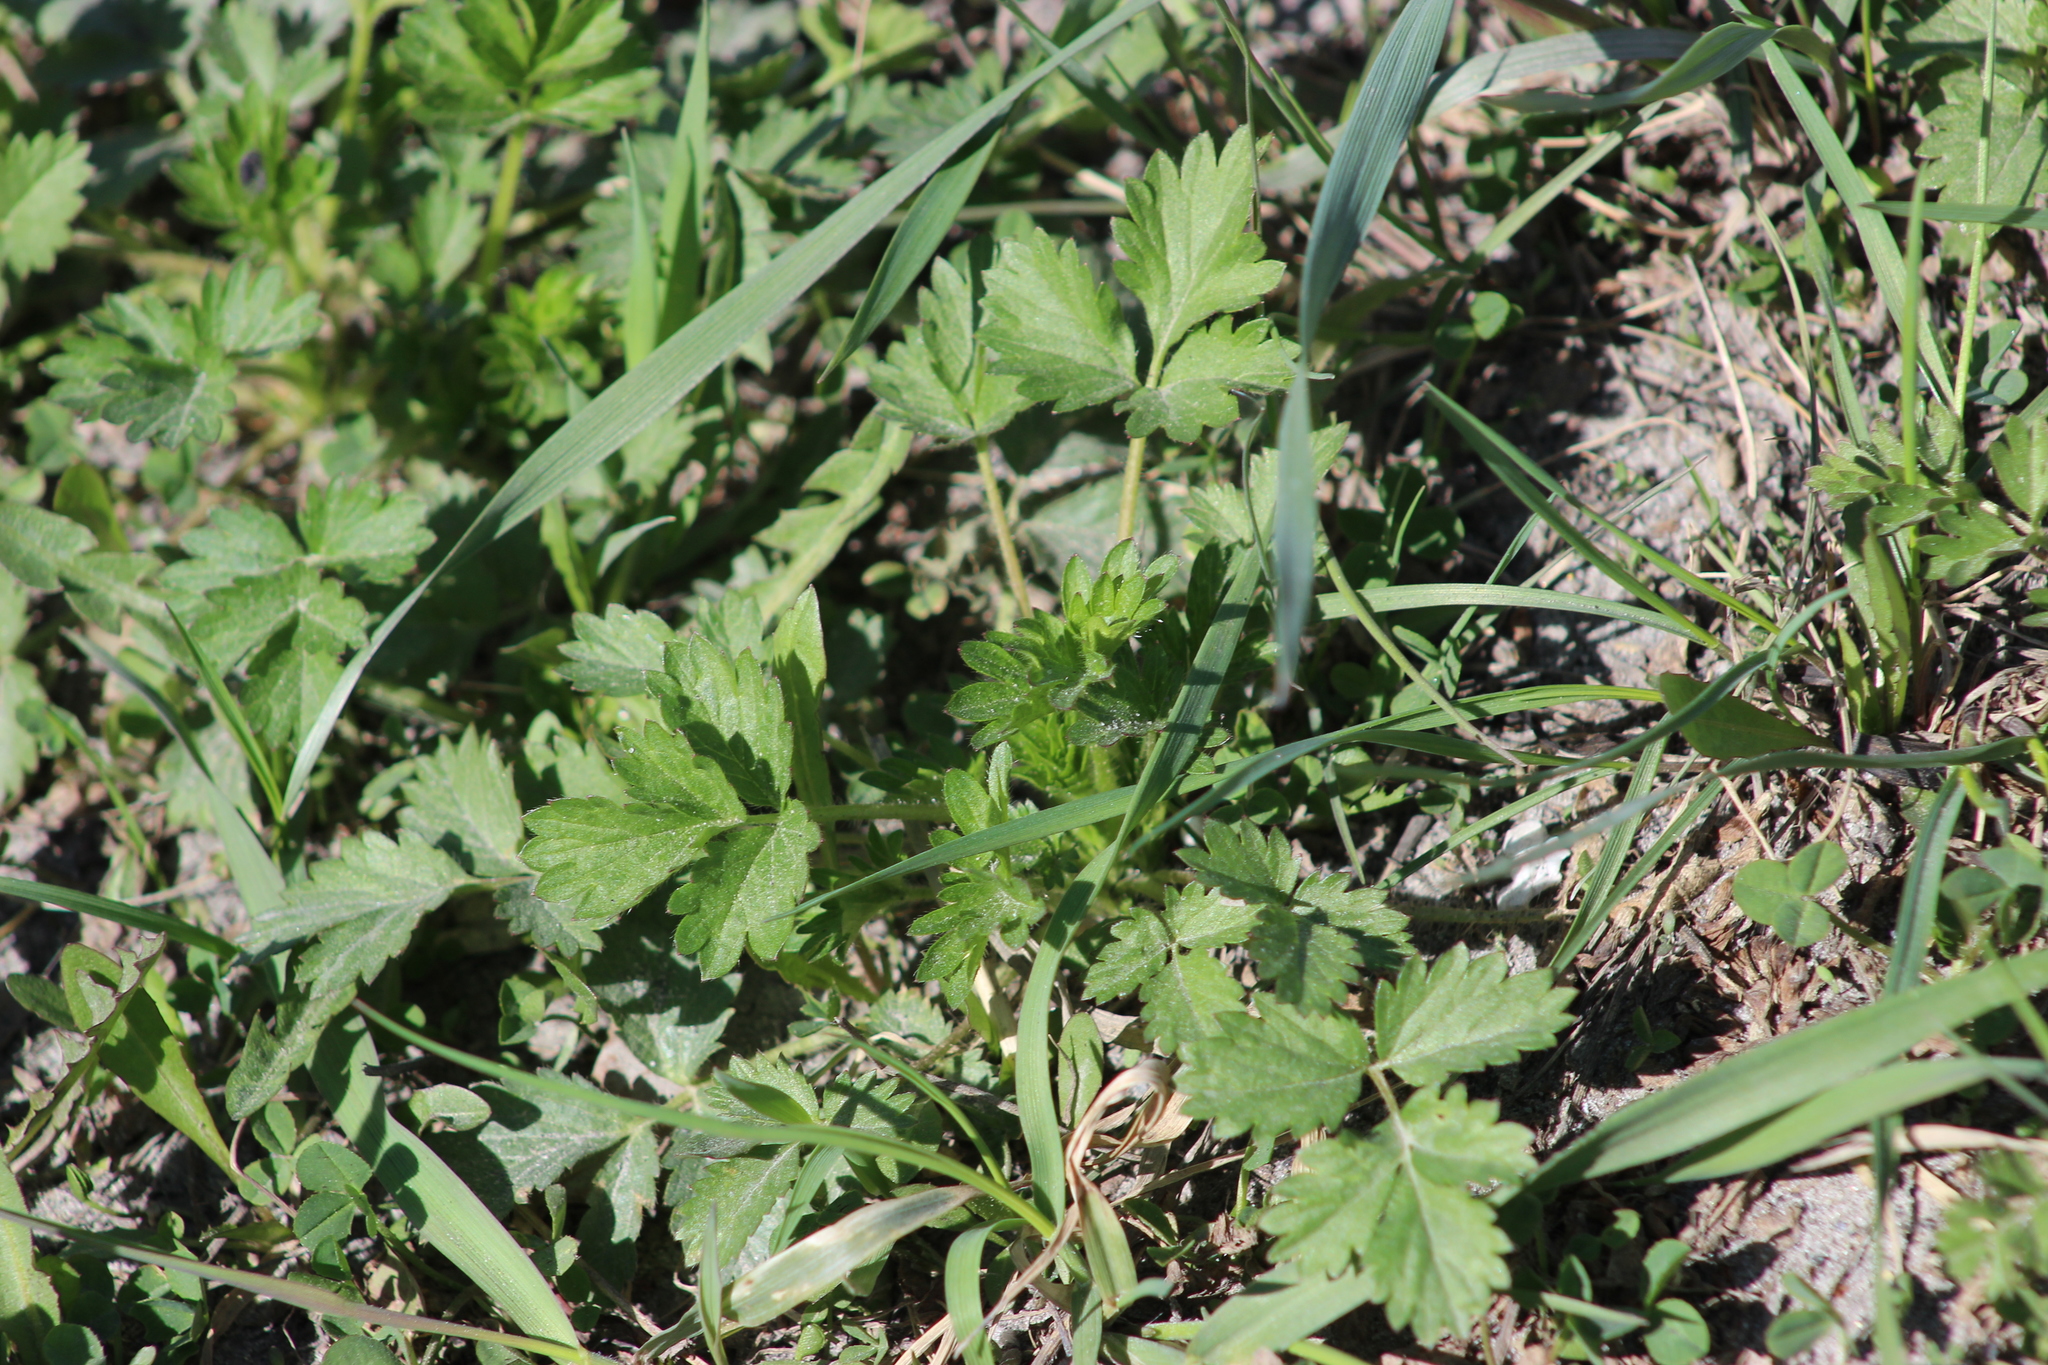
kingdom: Plantae
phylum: Tracheophyta
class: Magnoliopsida
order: Rosales
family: Rosaceae
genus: Potentilla
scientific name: Potentilla norvegica
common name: Ternate-leaved cinquefoil
